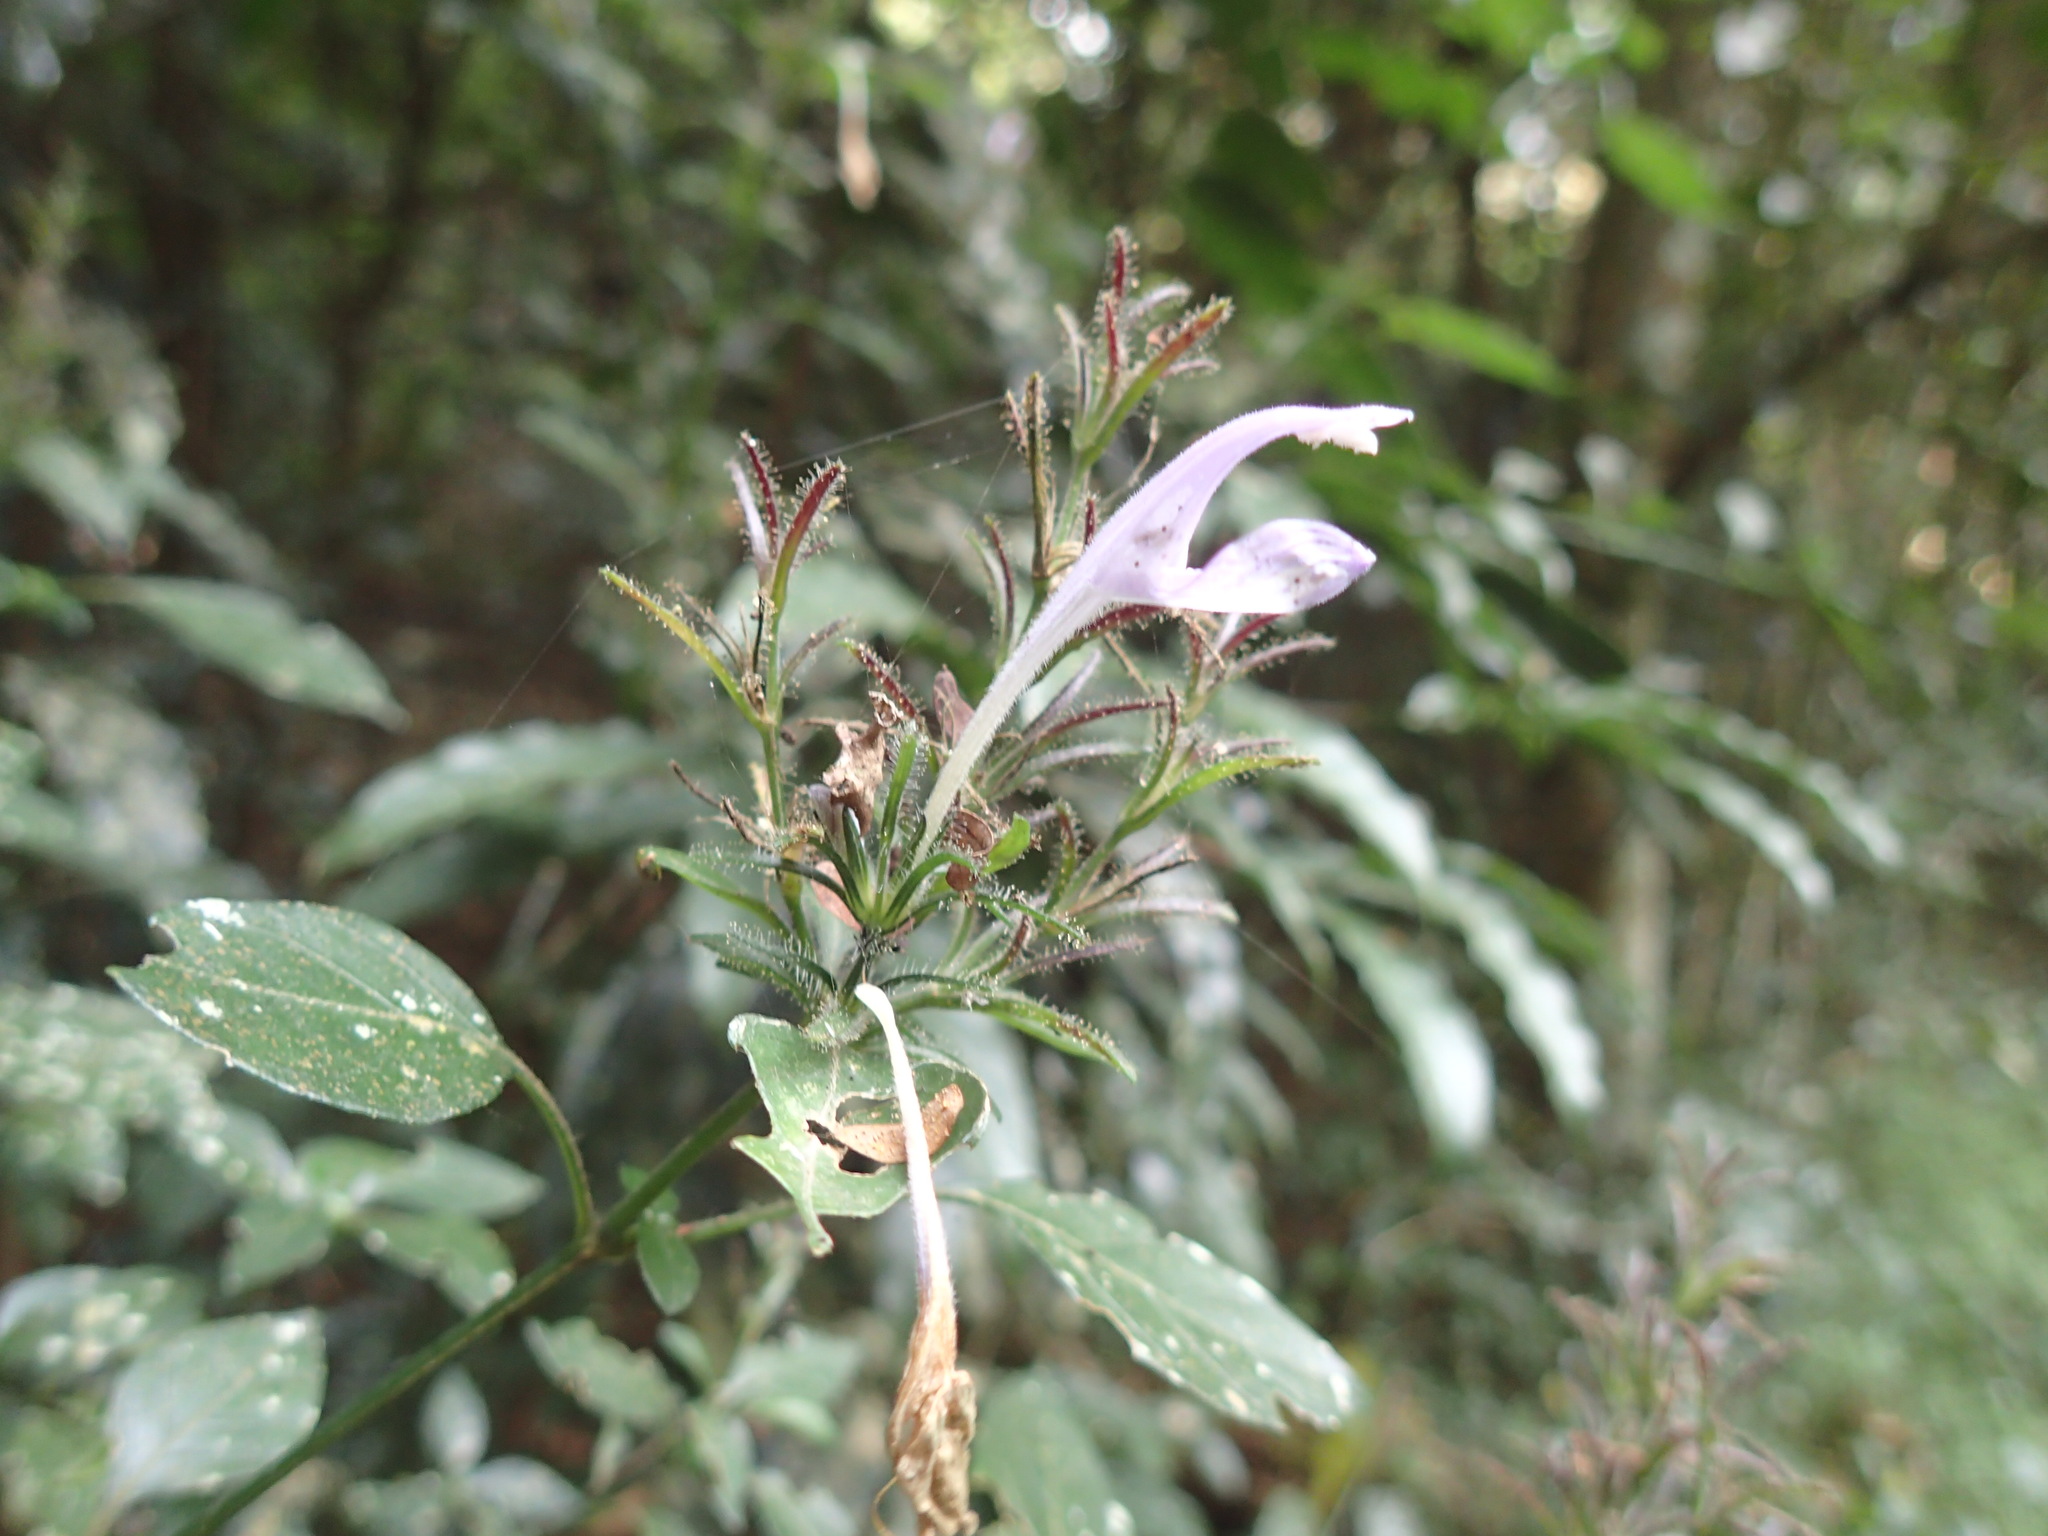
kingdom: Plantae
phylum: Tracheophyta
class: Magnoliopsida
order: Lamiales
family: Acanthaceae
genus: Isoglossa
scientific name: Isoglossa cooperi
